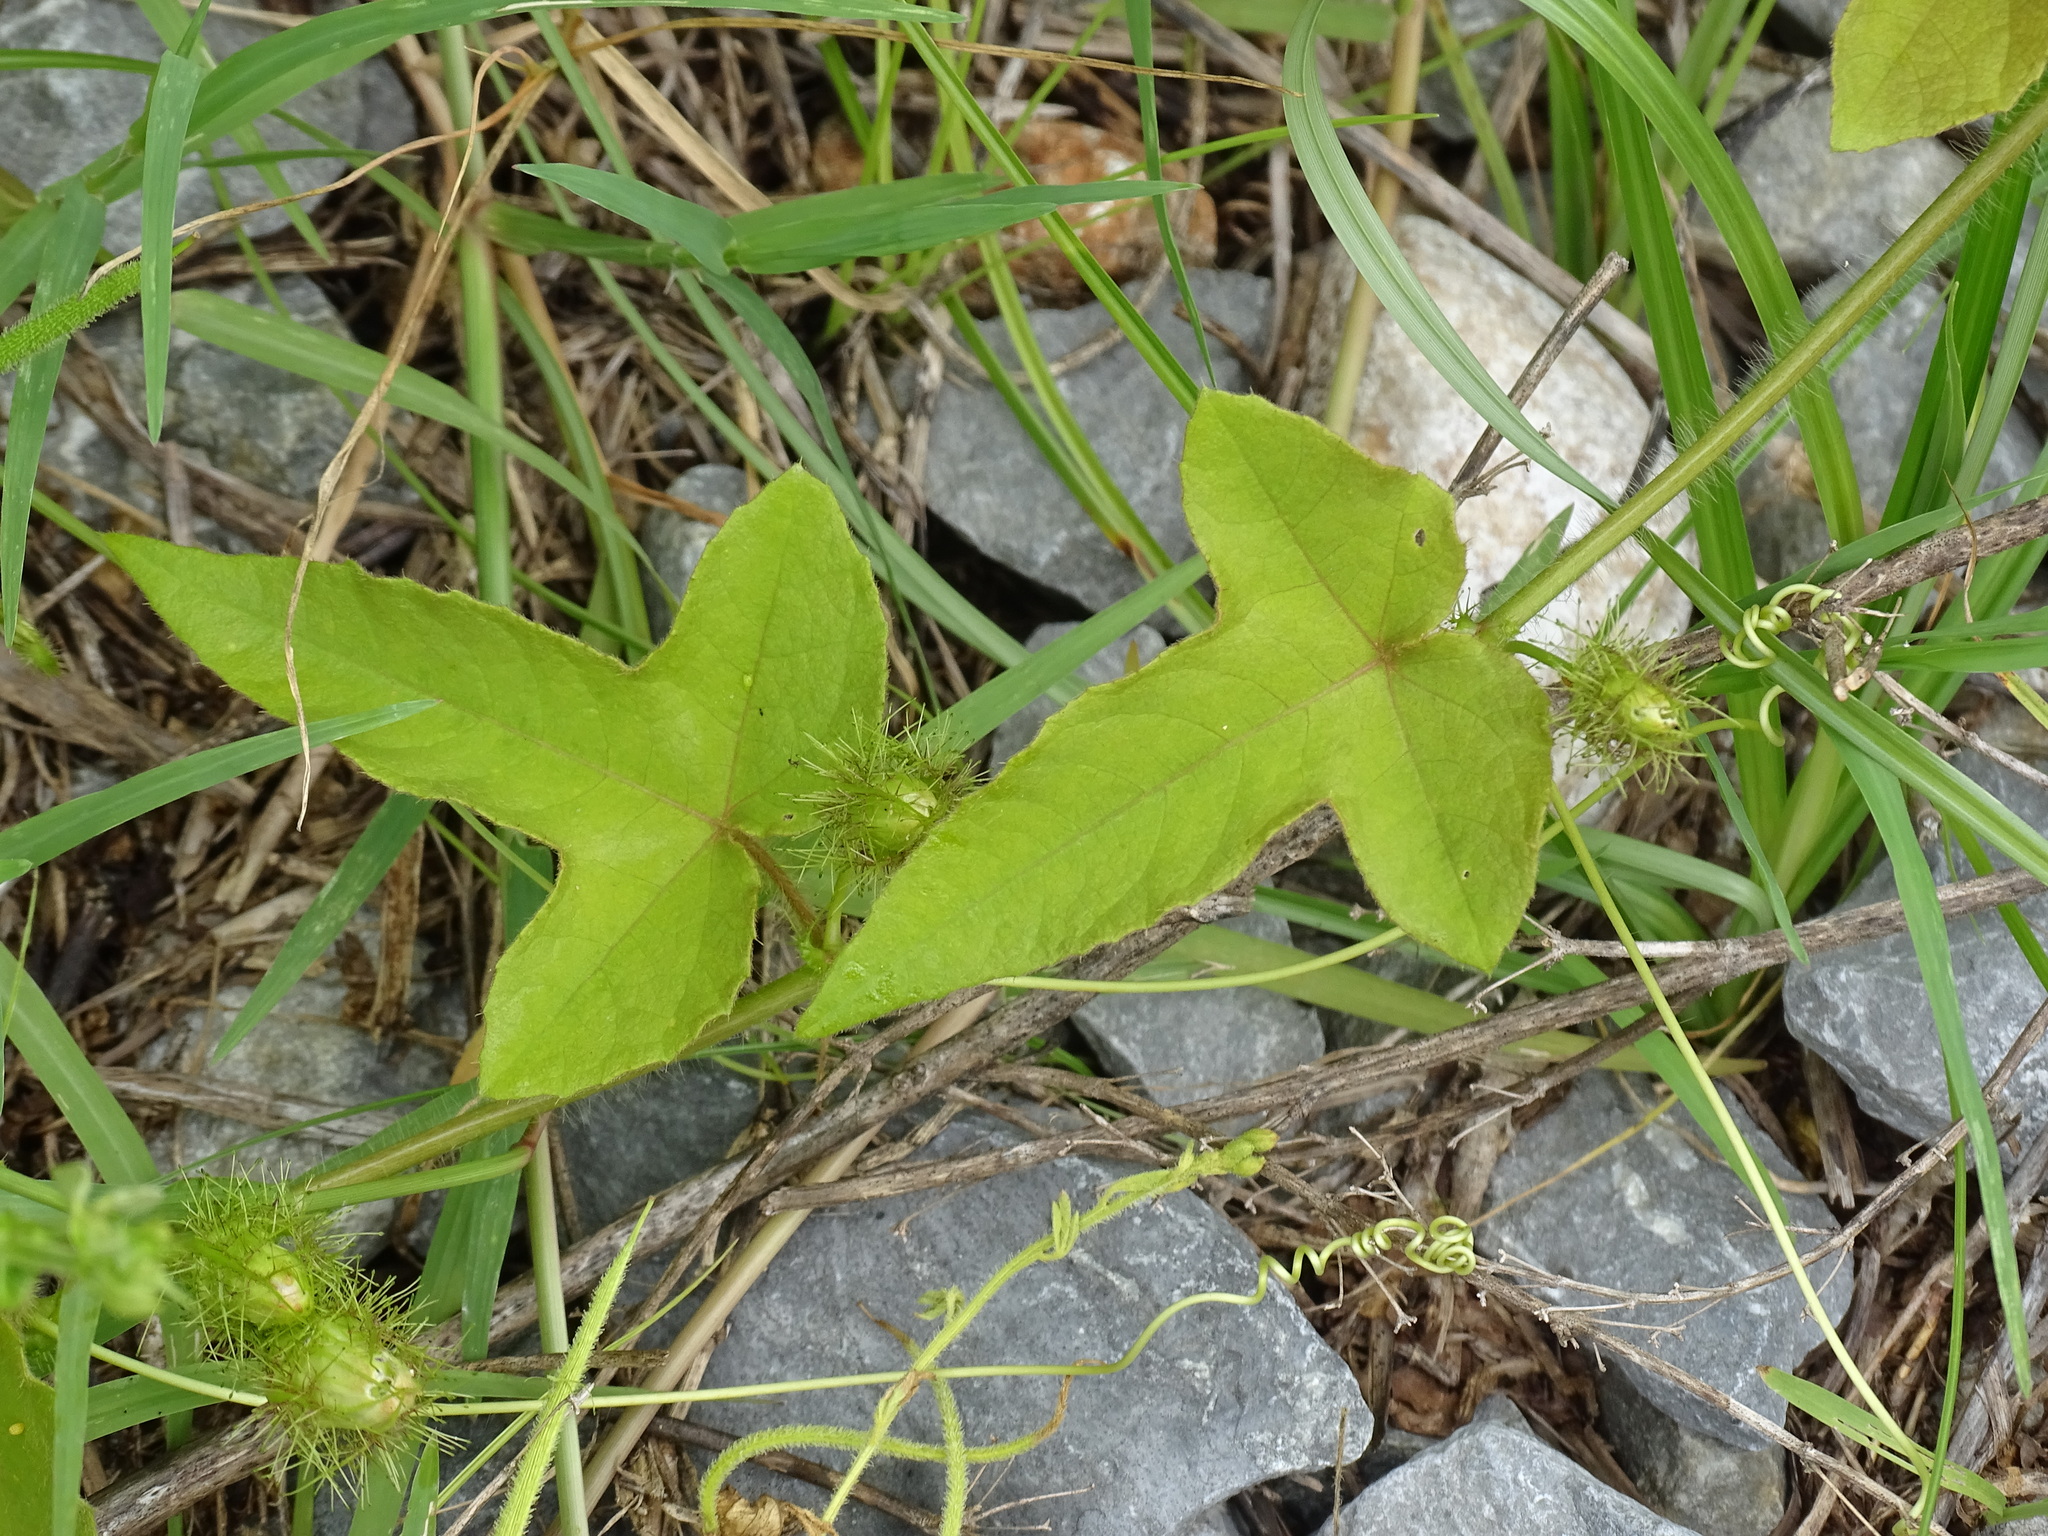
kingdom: Plantae
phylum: Tracheophyta
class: Magnoliopsida
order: Malpighiales
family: Passifloraceae
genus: Passiflora
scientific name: Passiflora foetida
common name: Fetid passionflower
